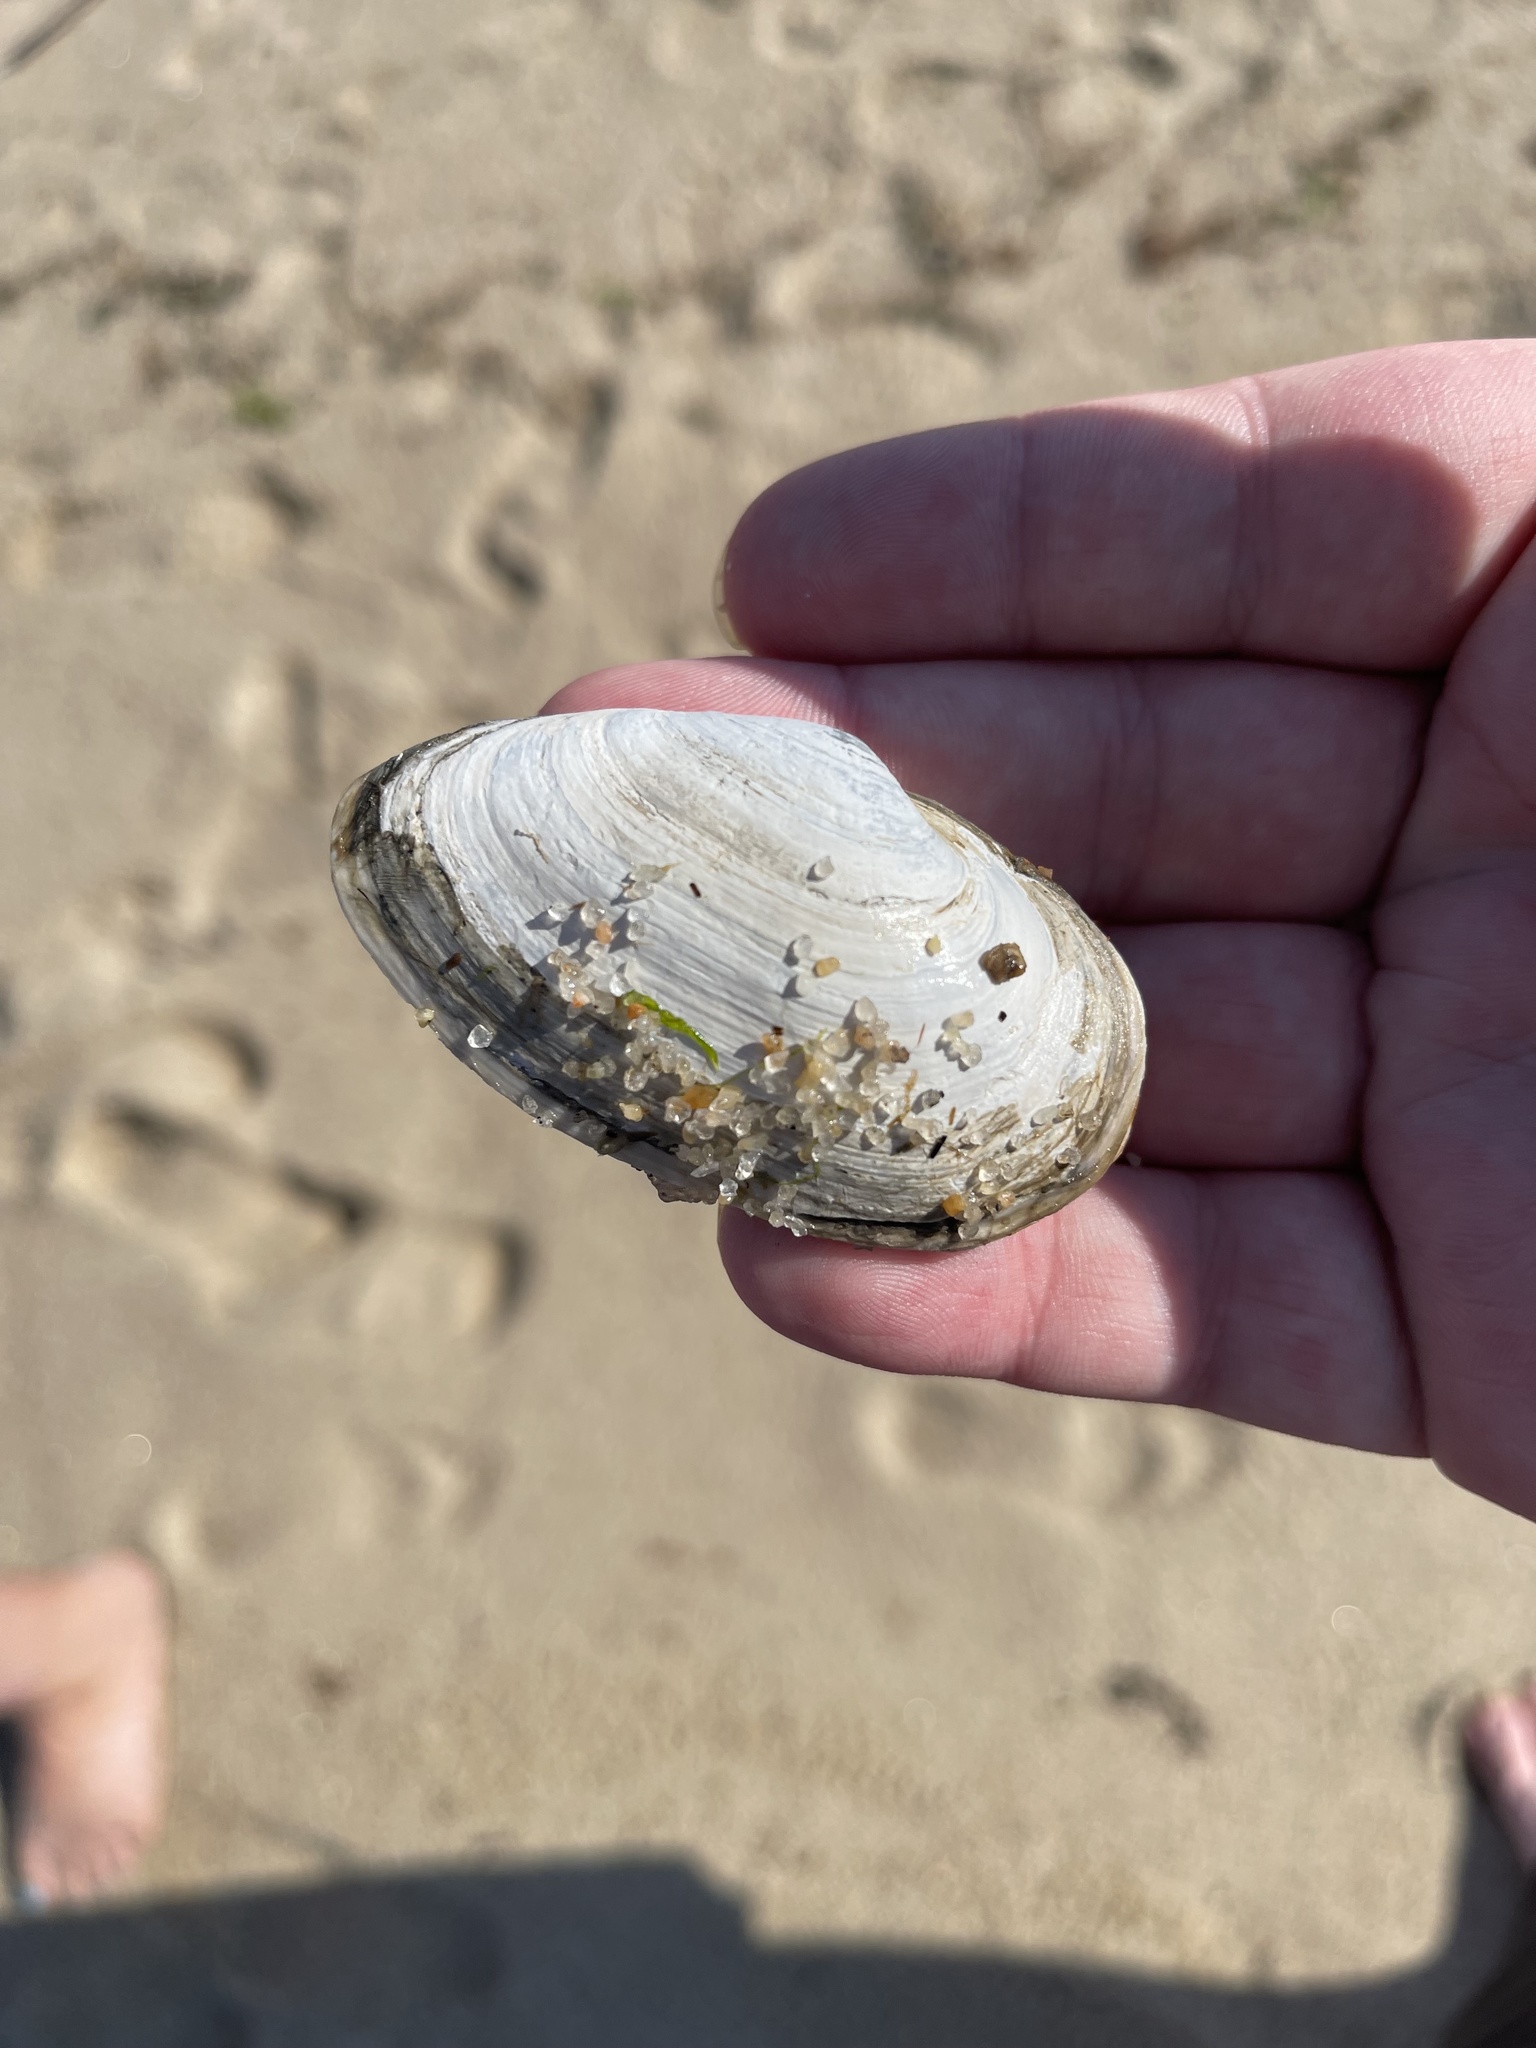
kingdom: Animalia
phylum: Mollusca
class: Bivalvia
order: Myida
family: Myidae
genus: Mya
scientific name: Mya arenaria
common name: Soft-shelled clam
